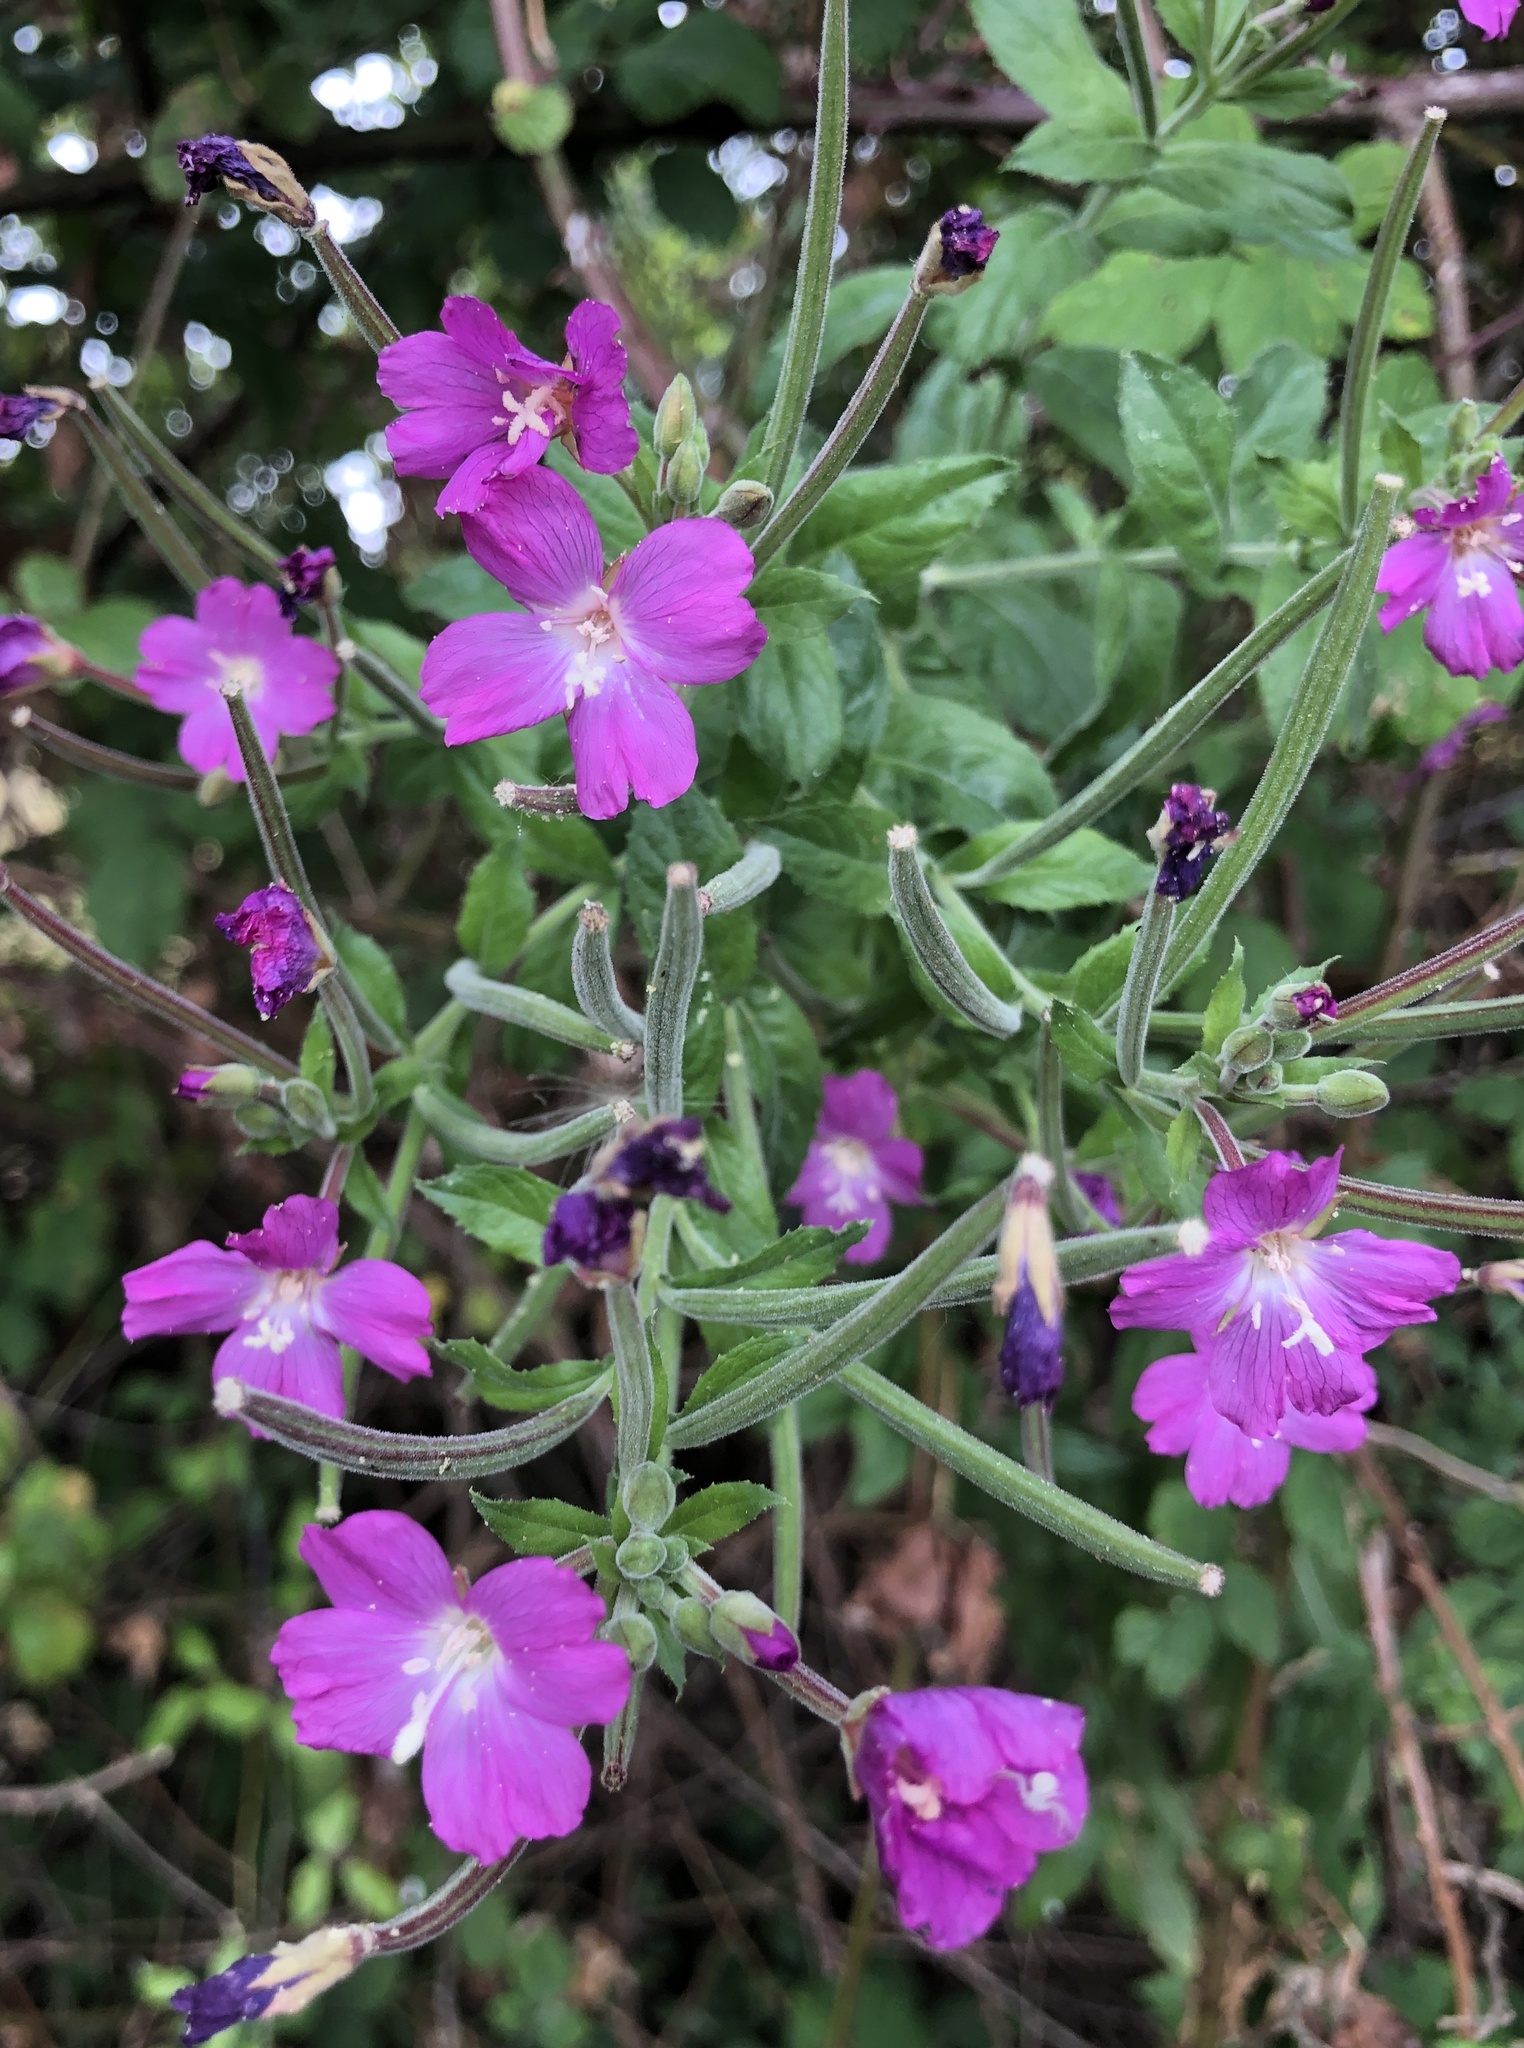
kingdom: Plantae
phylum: Tracheophyta
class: Magnoliopsida
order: Myrtales
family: Onagraceae
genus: Epilobium
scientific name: Epilobium hirsutum
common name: Great willowherb
